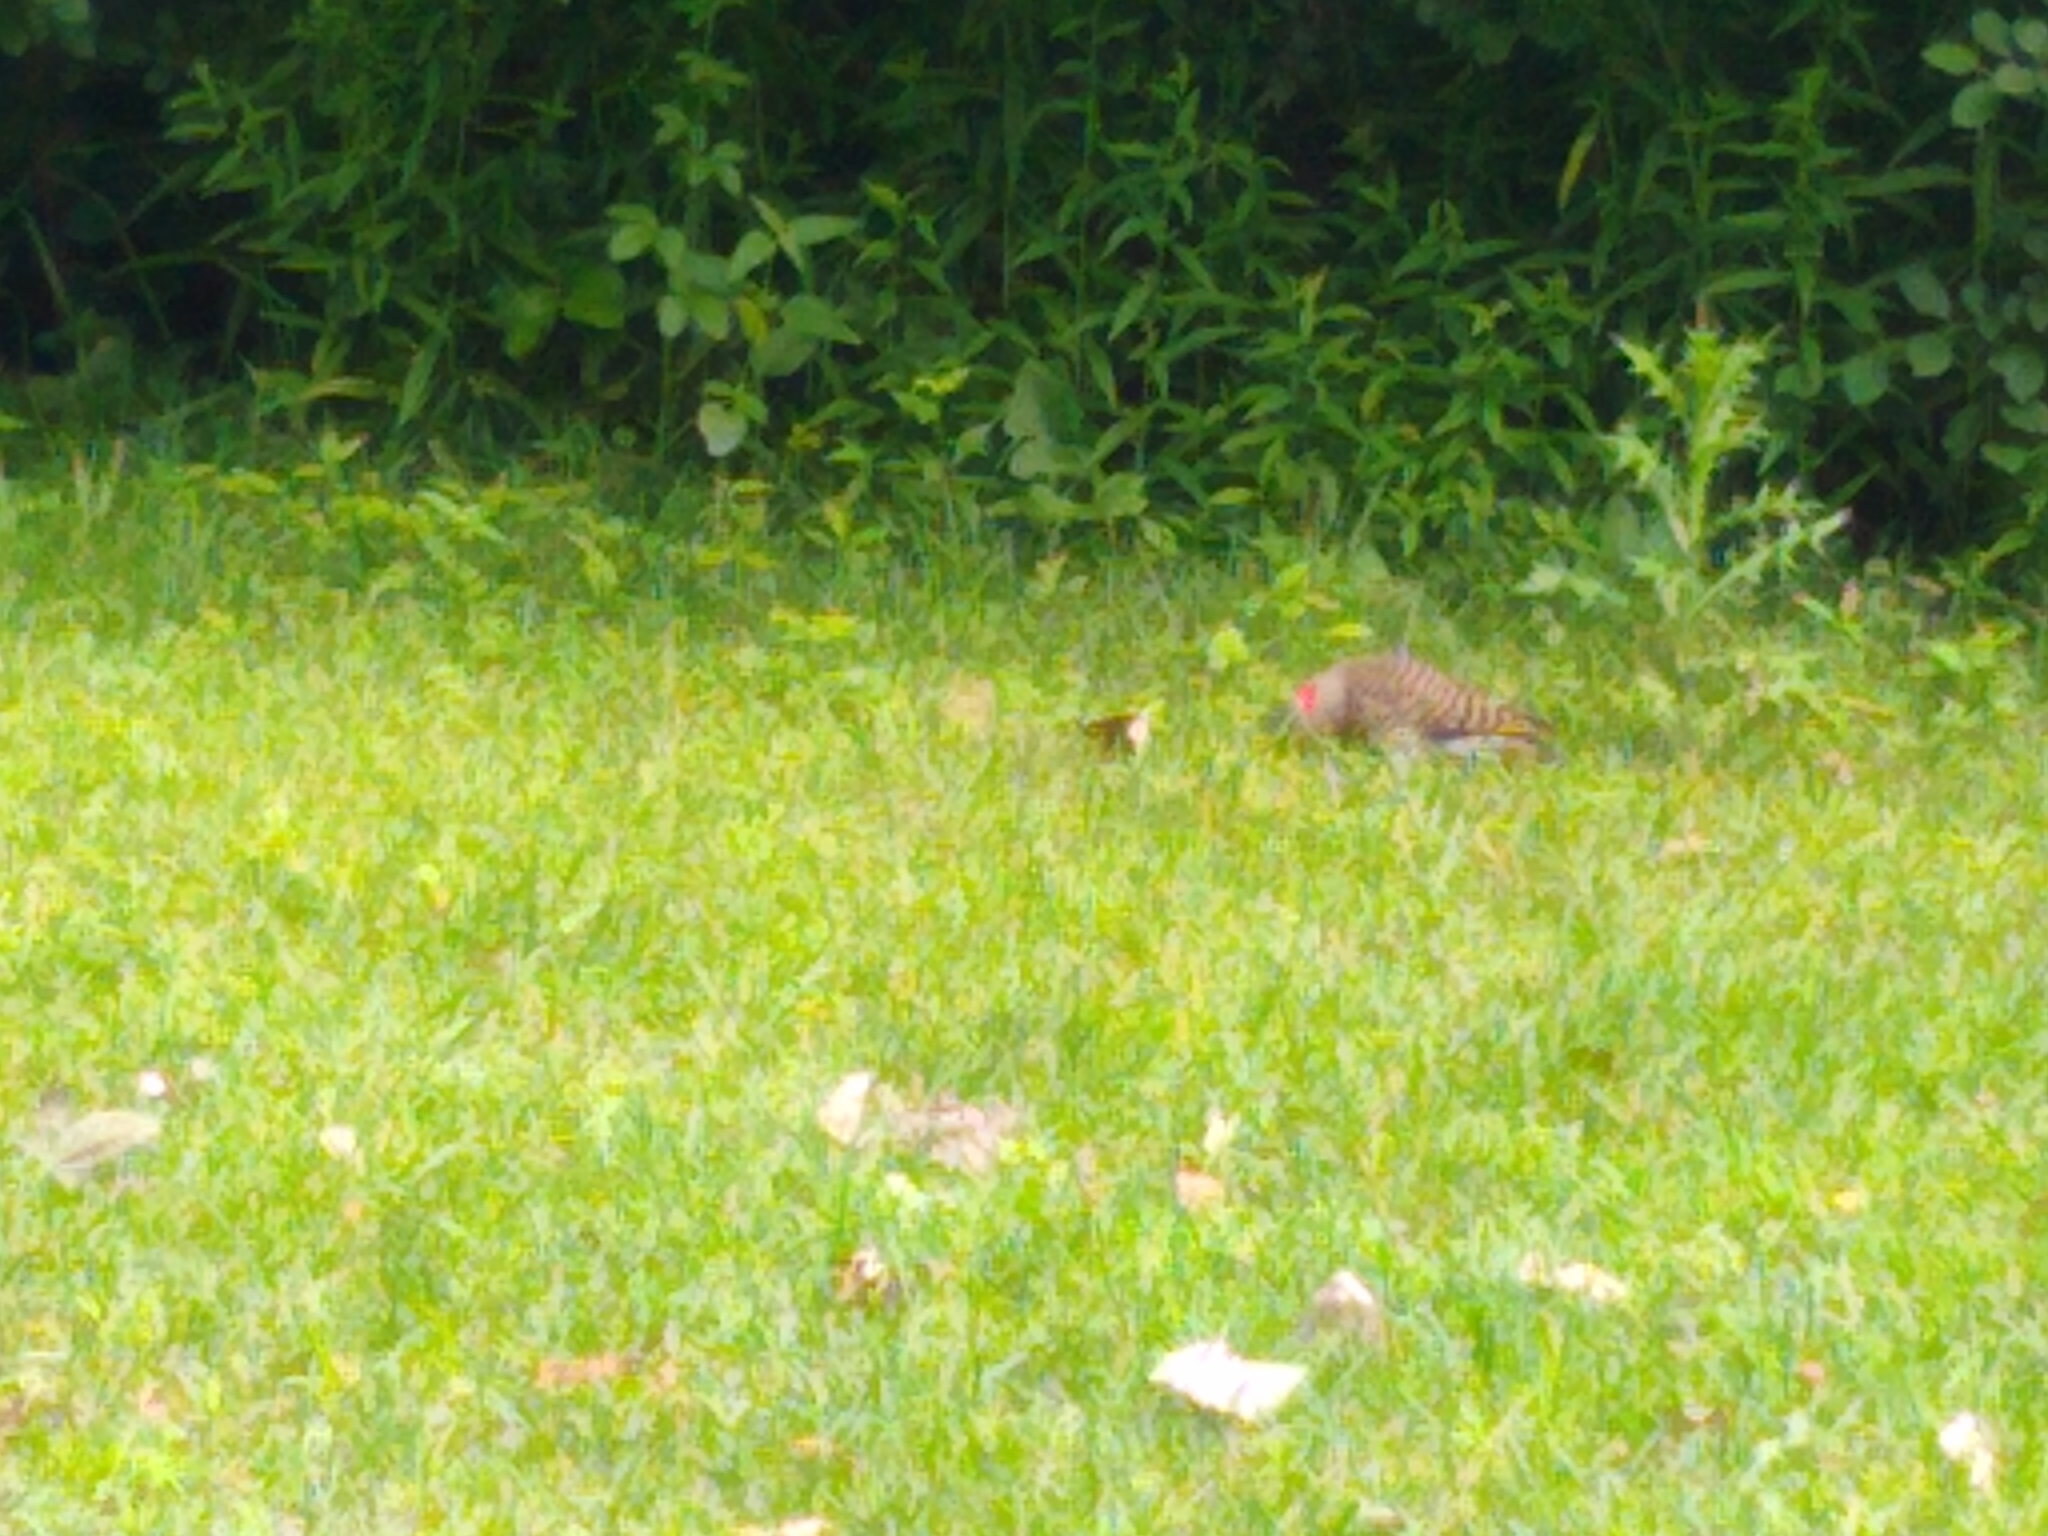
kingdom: Animalia
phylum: Chordata
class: Aves
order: Piciformes
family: Picidae
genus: Colaptes
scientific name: Colaptes auratus
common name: Northern flicker
